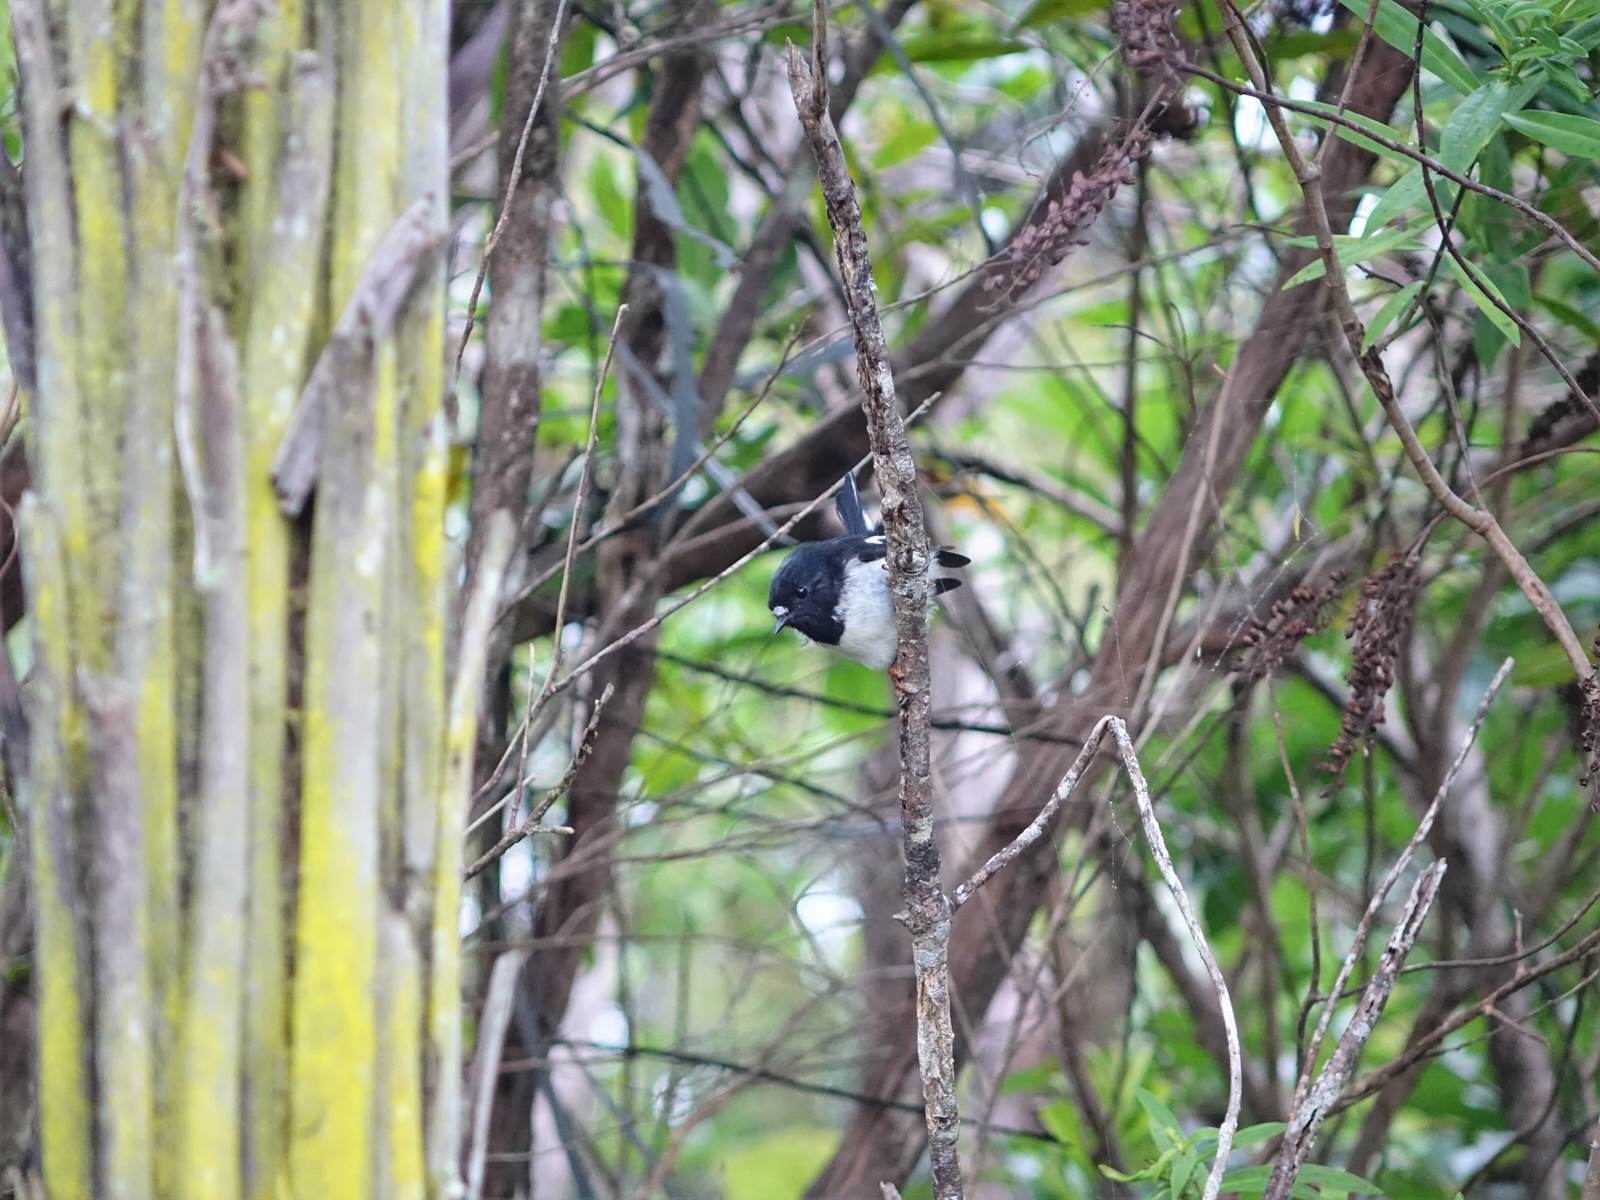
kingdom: Animalia
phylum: Chordata
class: Aves
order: Passeriformes
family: Petroicidae
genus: Petroica
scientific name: Petroica macrocephala
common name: Tomtit
